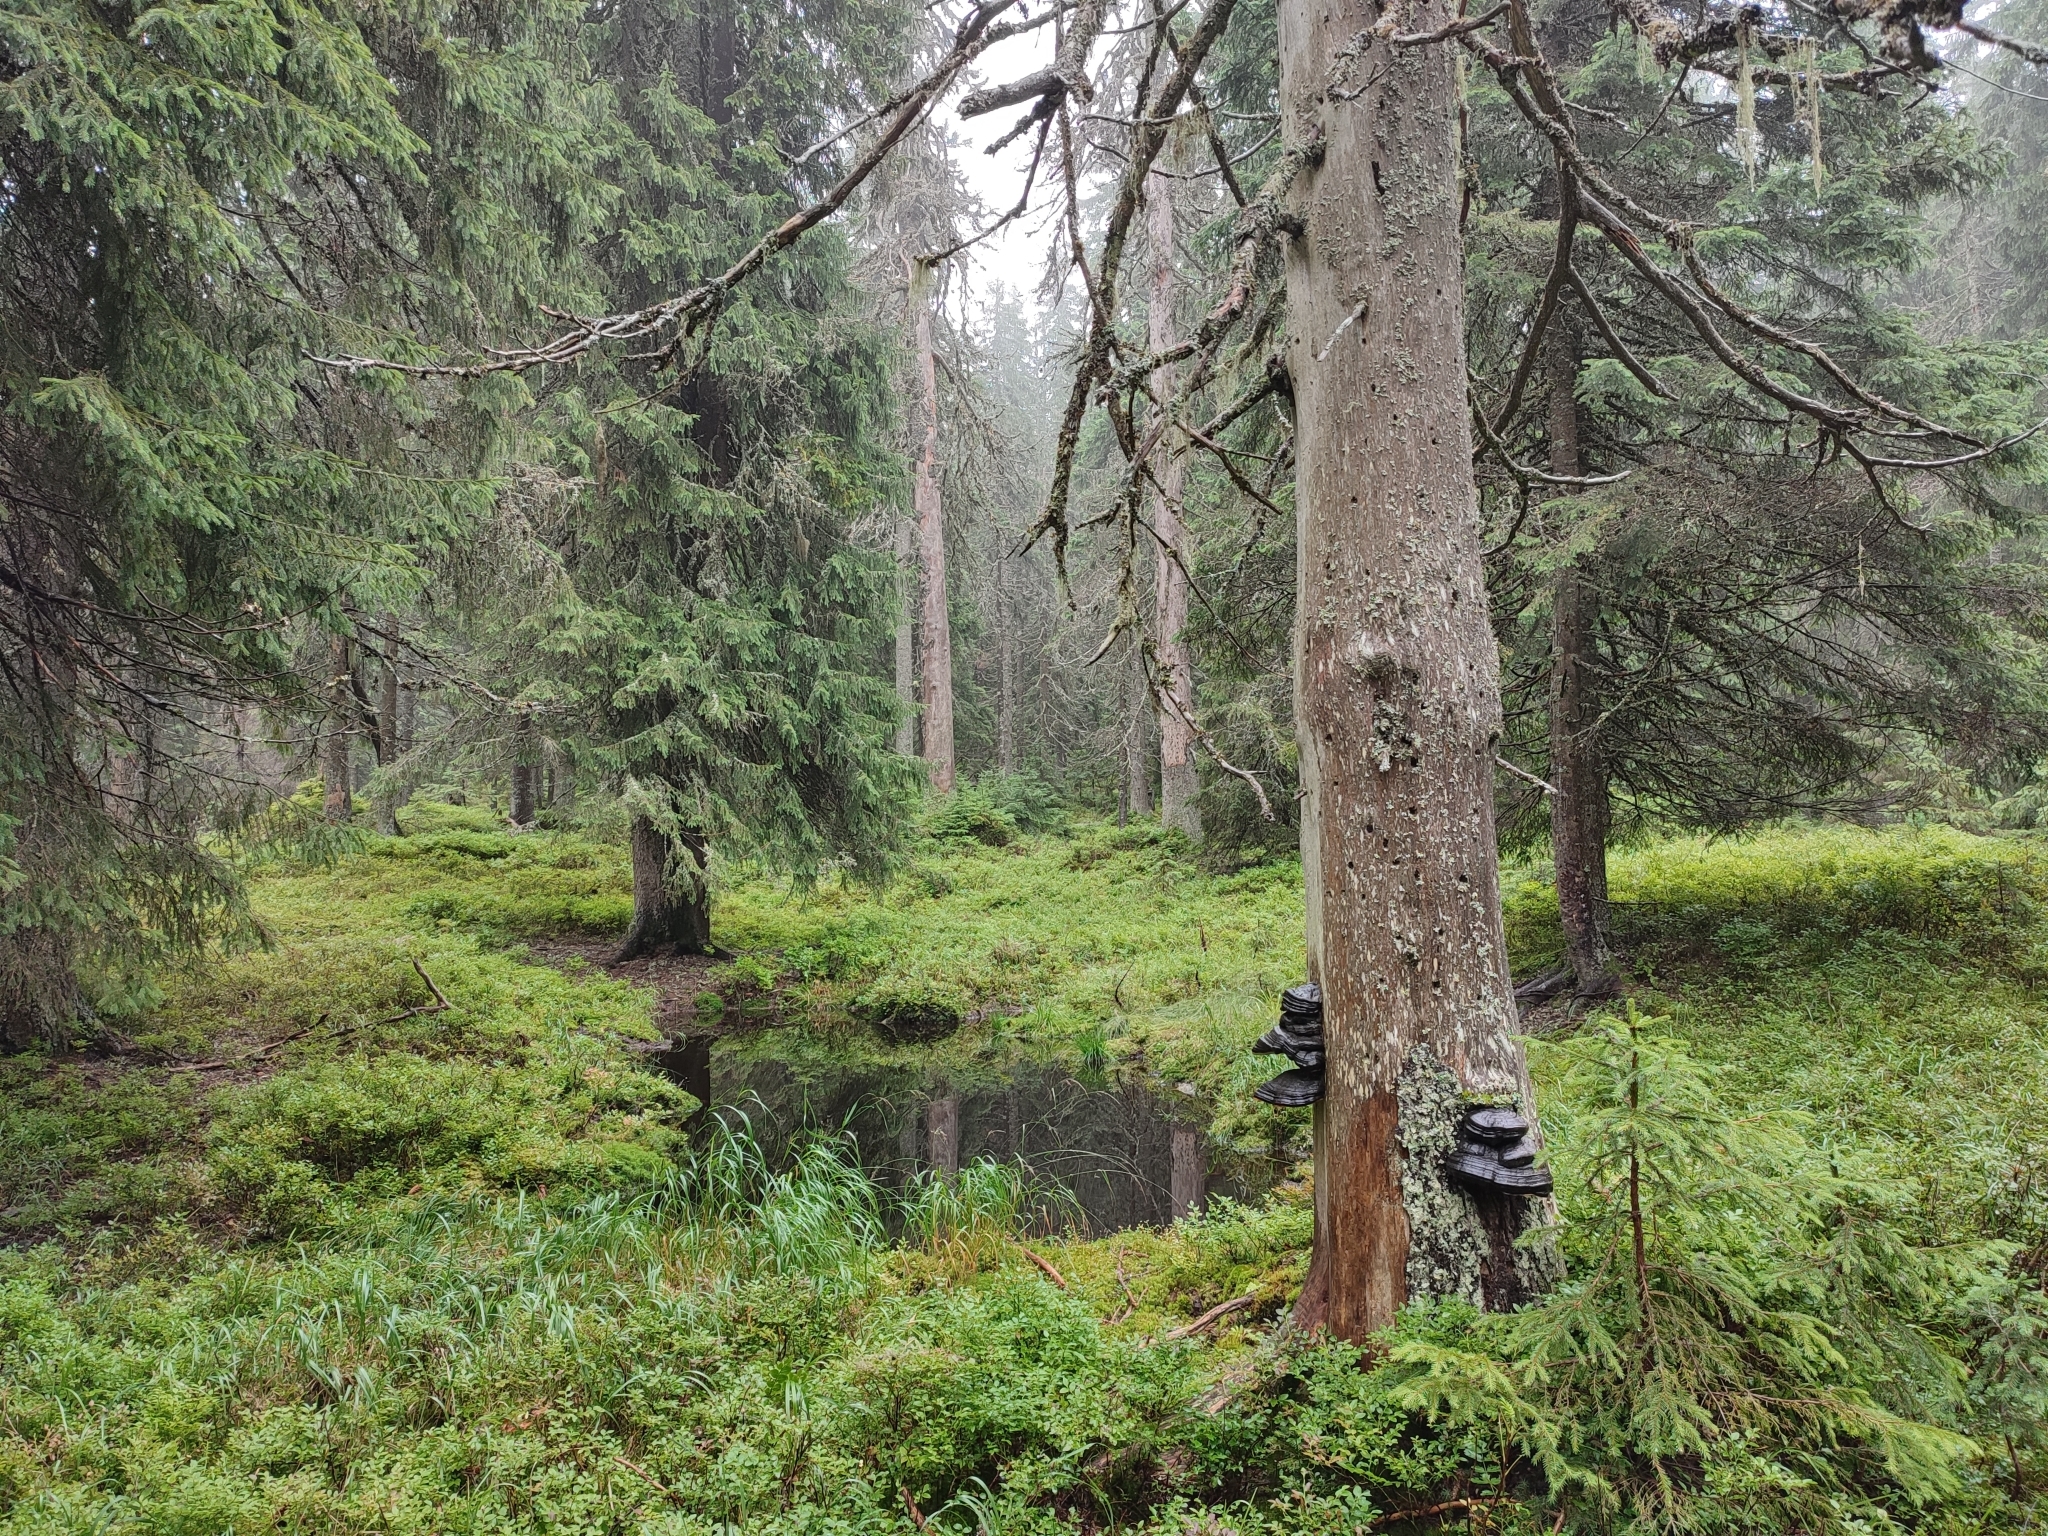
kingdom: Plantae
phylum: Tracheophyta
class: Pinopsida
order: Pinales
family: Pinaceae
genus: Picea
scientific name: Picea abies
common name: Norway spruce
